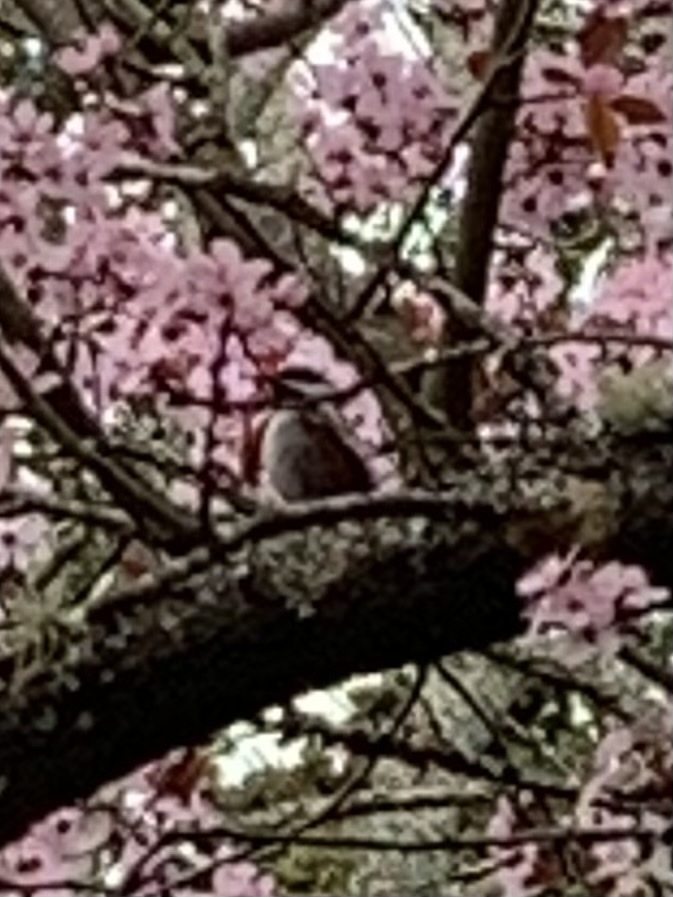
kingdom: Animalia
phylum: Chordata
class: Aves
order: Passeriformes
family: Paridae
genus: Poecile
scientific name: Poecile rufescens
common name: Chestnut-backed chickadee
